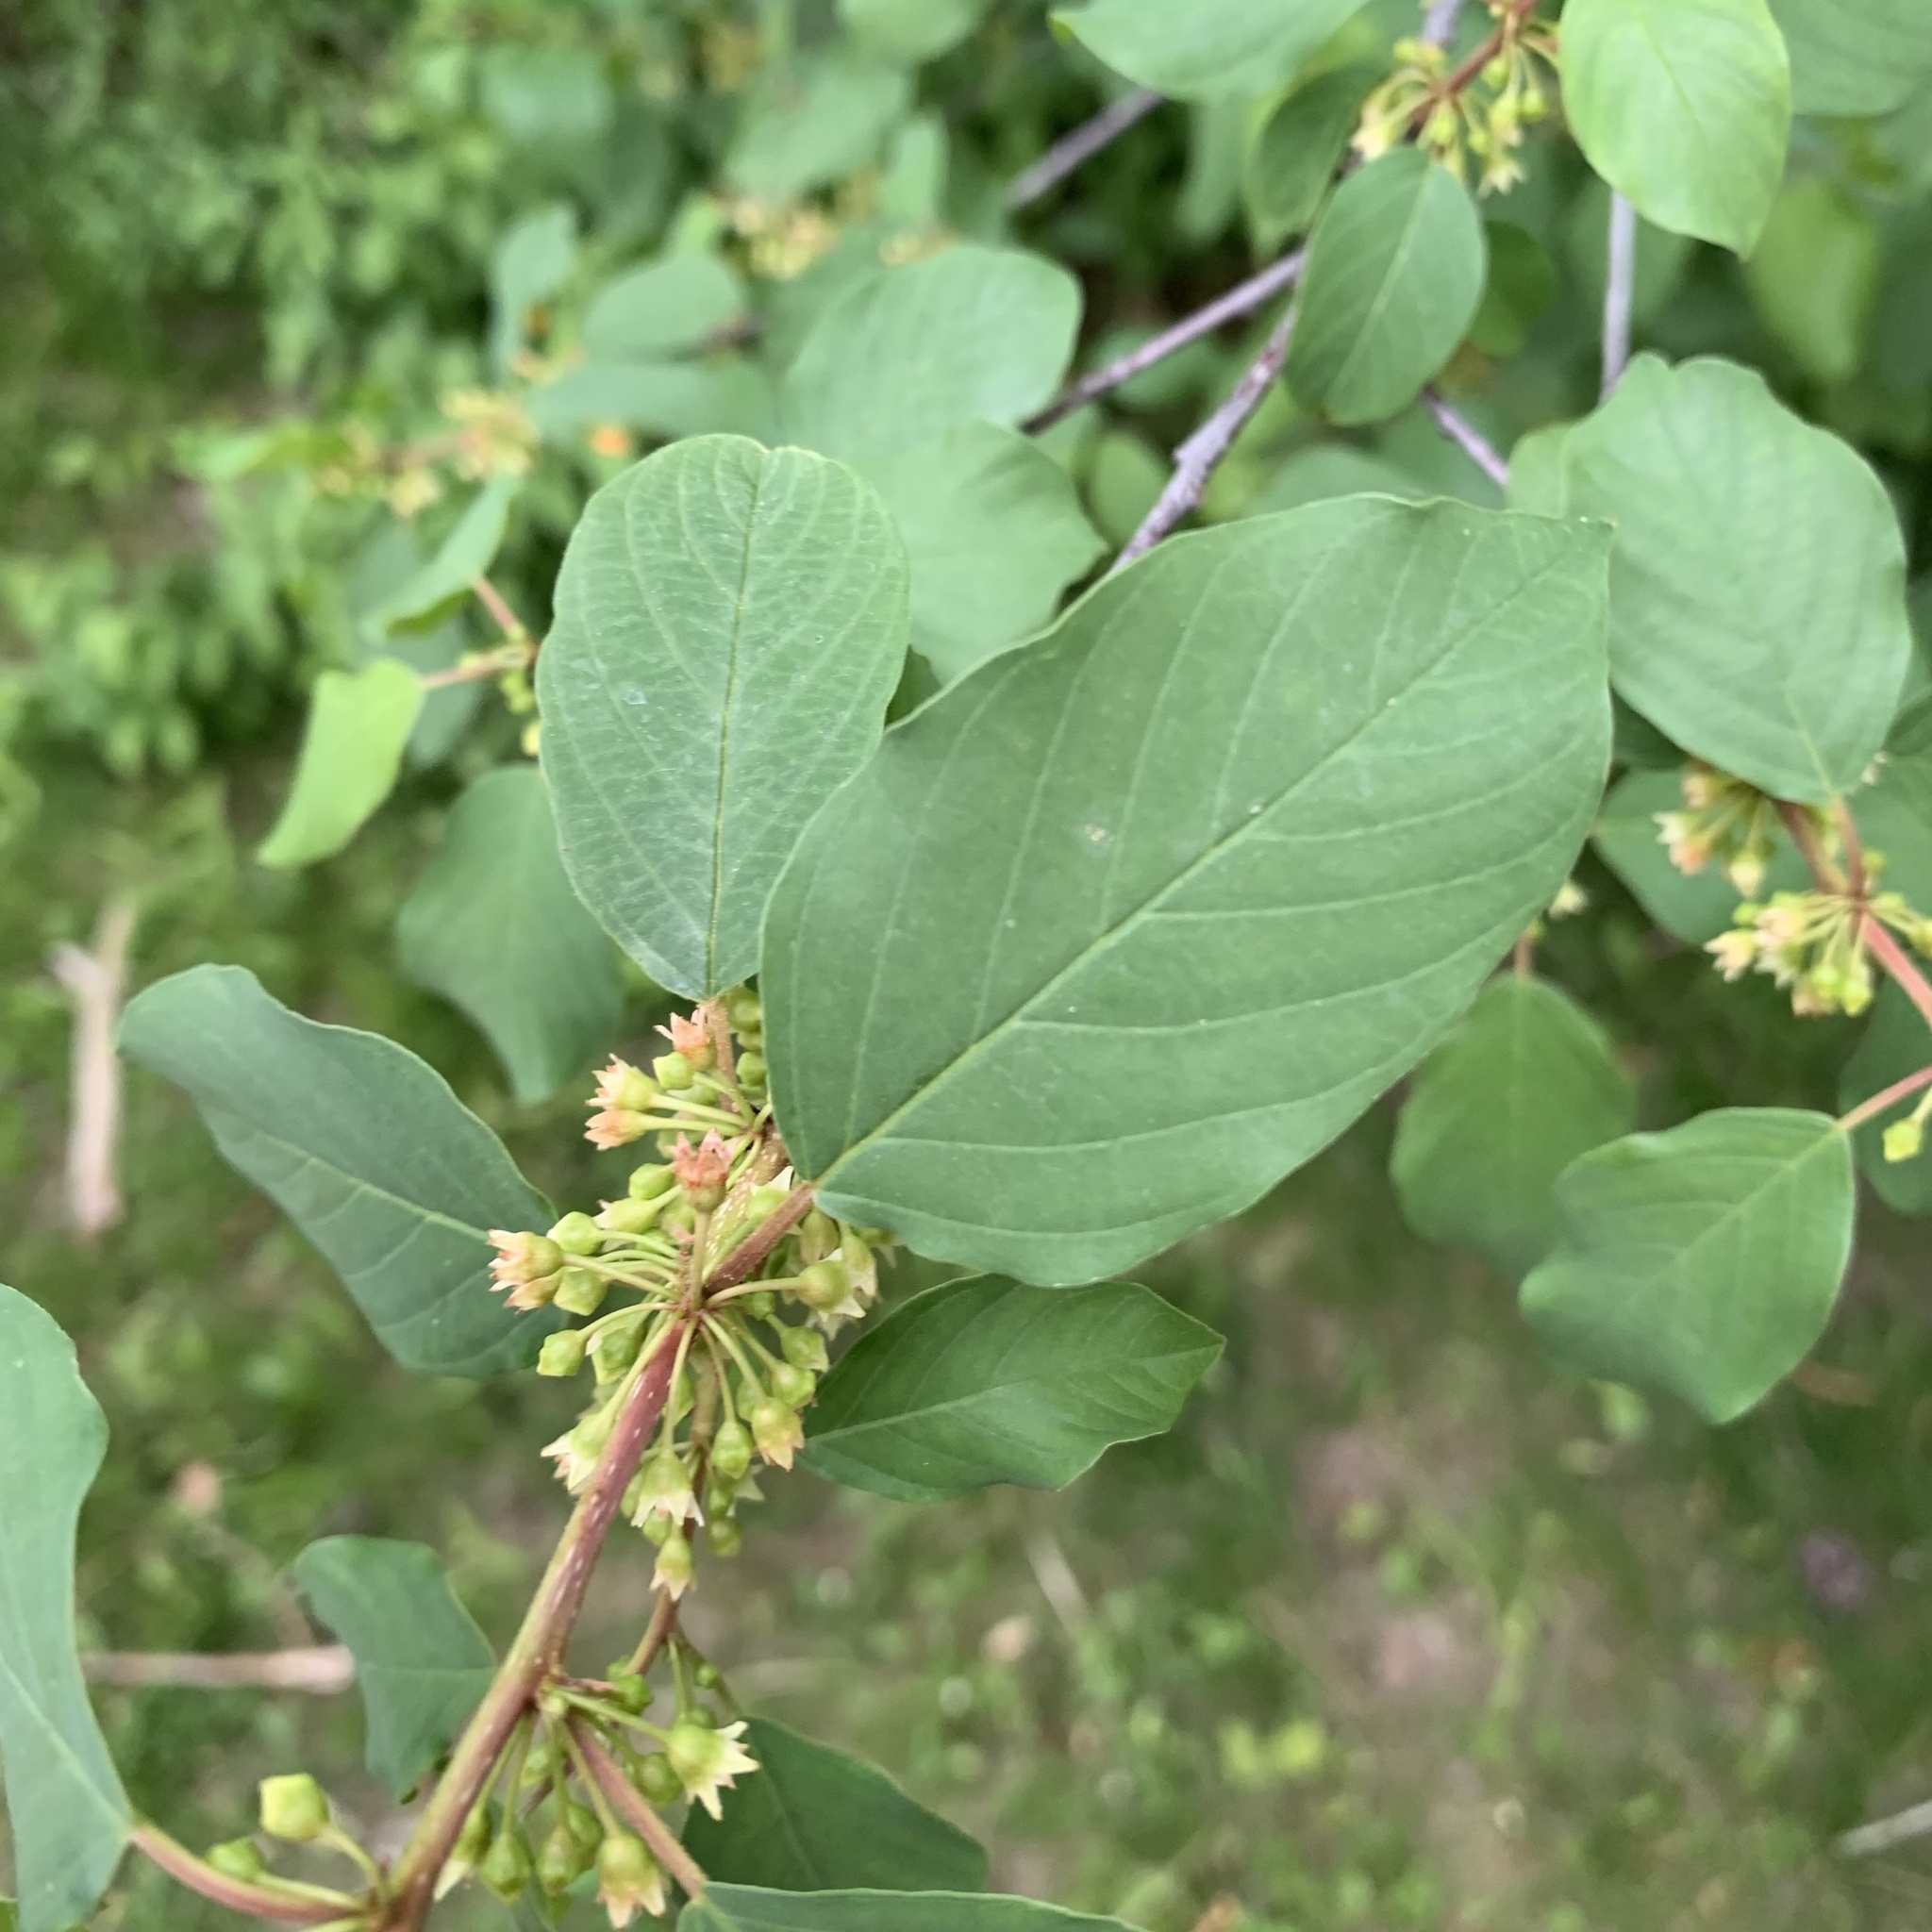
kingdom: Plantae
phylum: Tracheophyta
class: Magnoliopsida
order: Rosales
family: Rhamnaceae
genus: Frangula
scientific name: Frangula alnus
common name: Alder buckthorn
